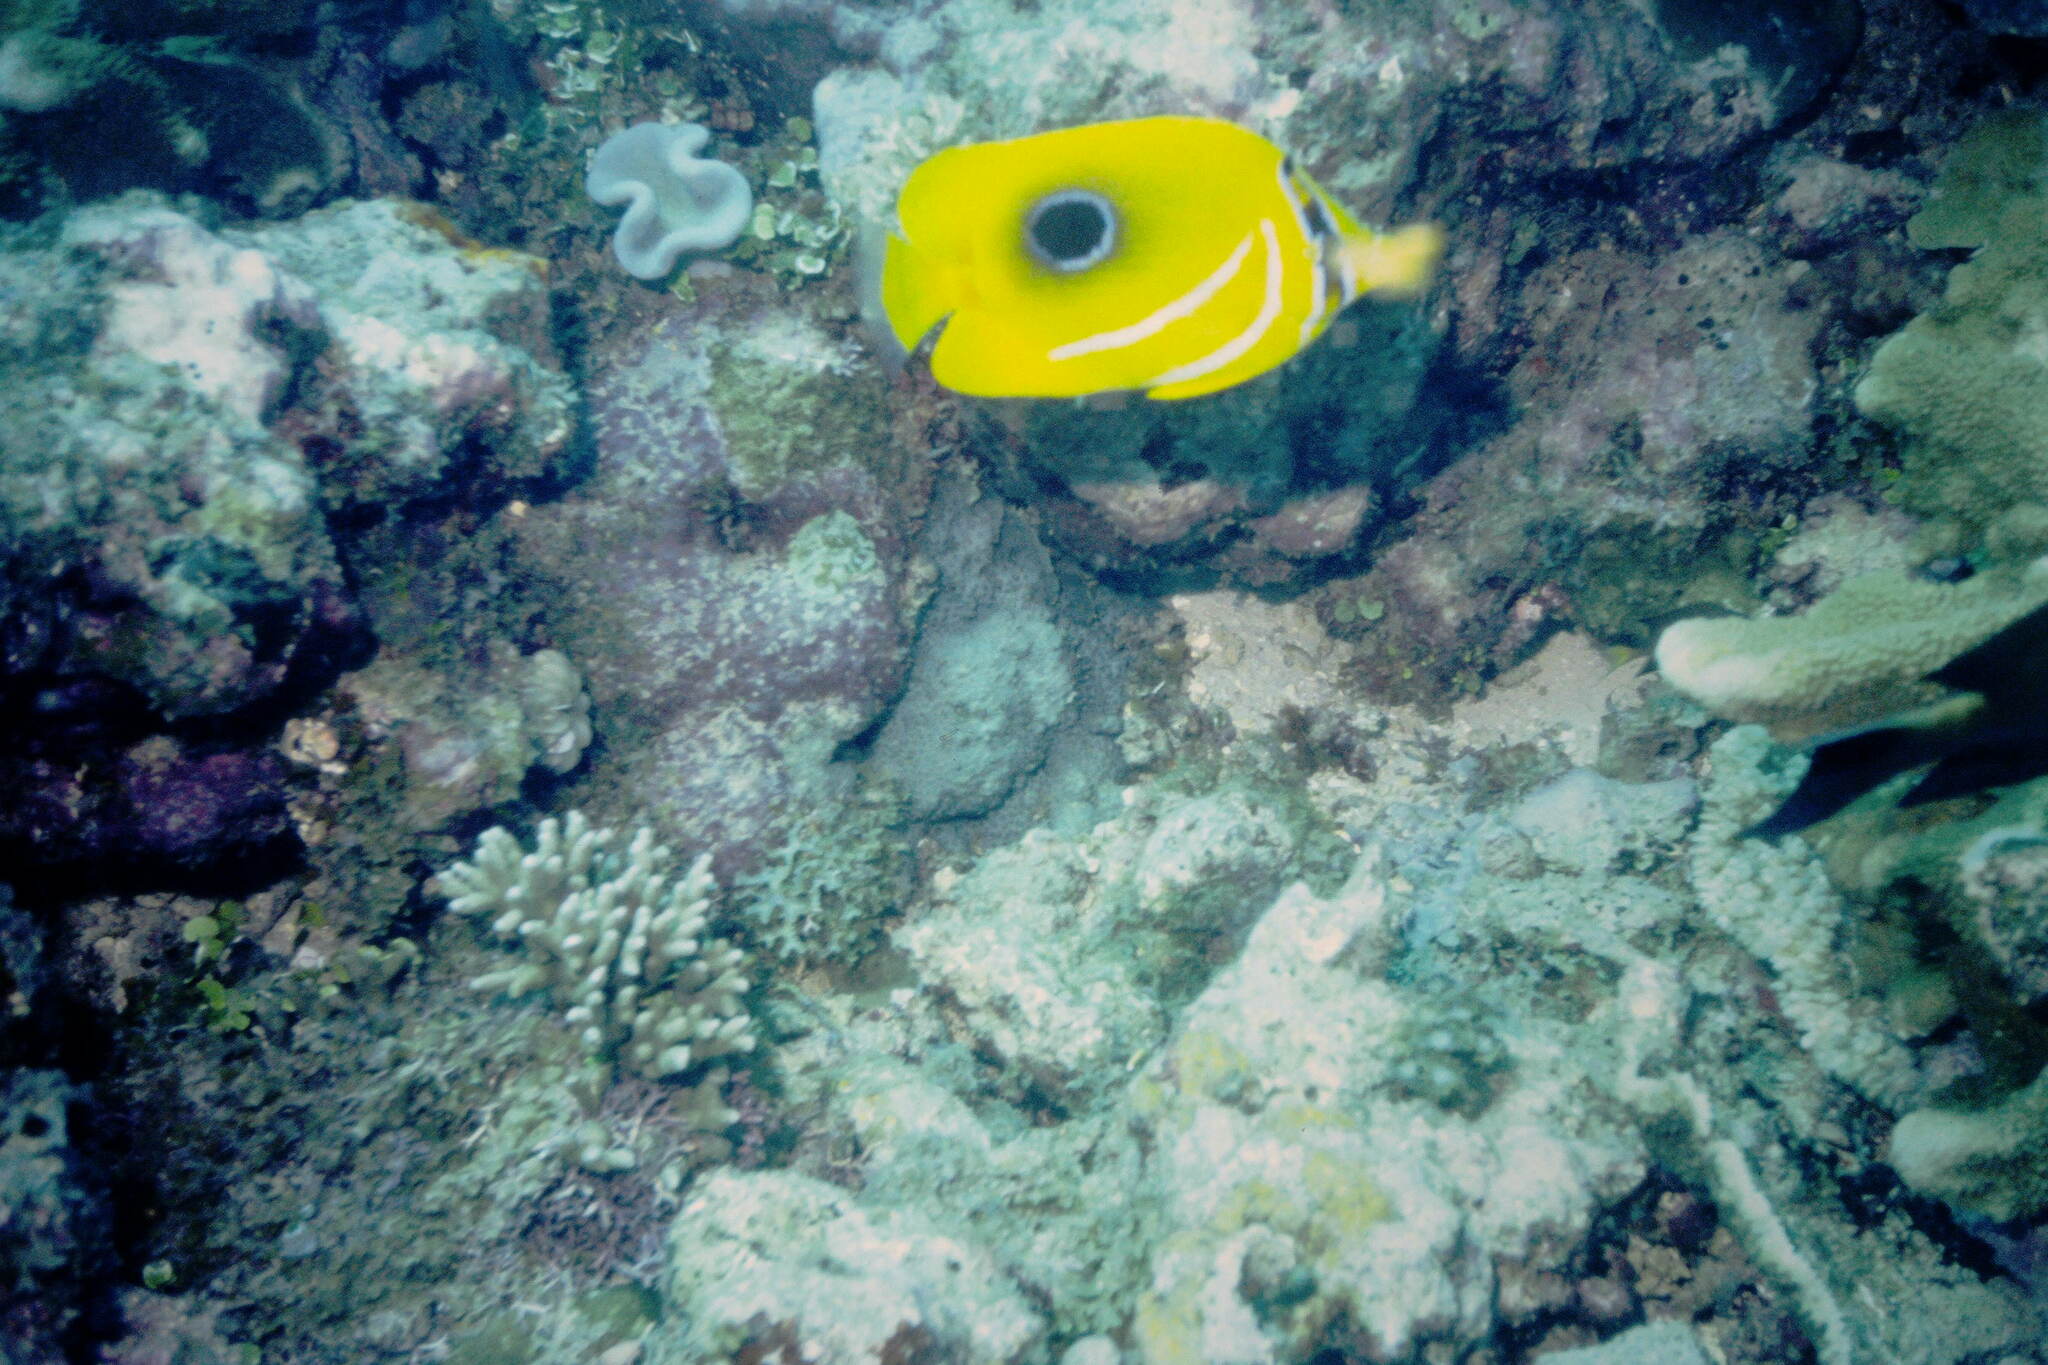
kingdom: Animalia
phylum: Chordata
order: Perciformes
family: Chaetodontidae
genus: Chaetodon
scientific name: Chaetodon bennetti
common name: Bennett's butterflyfish
